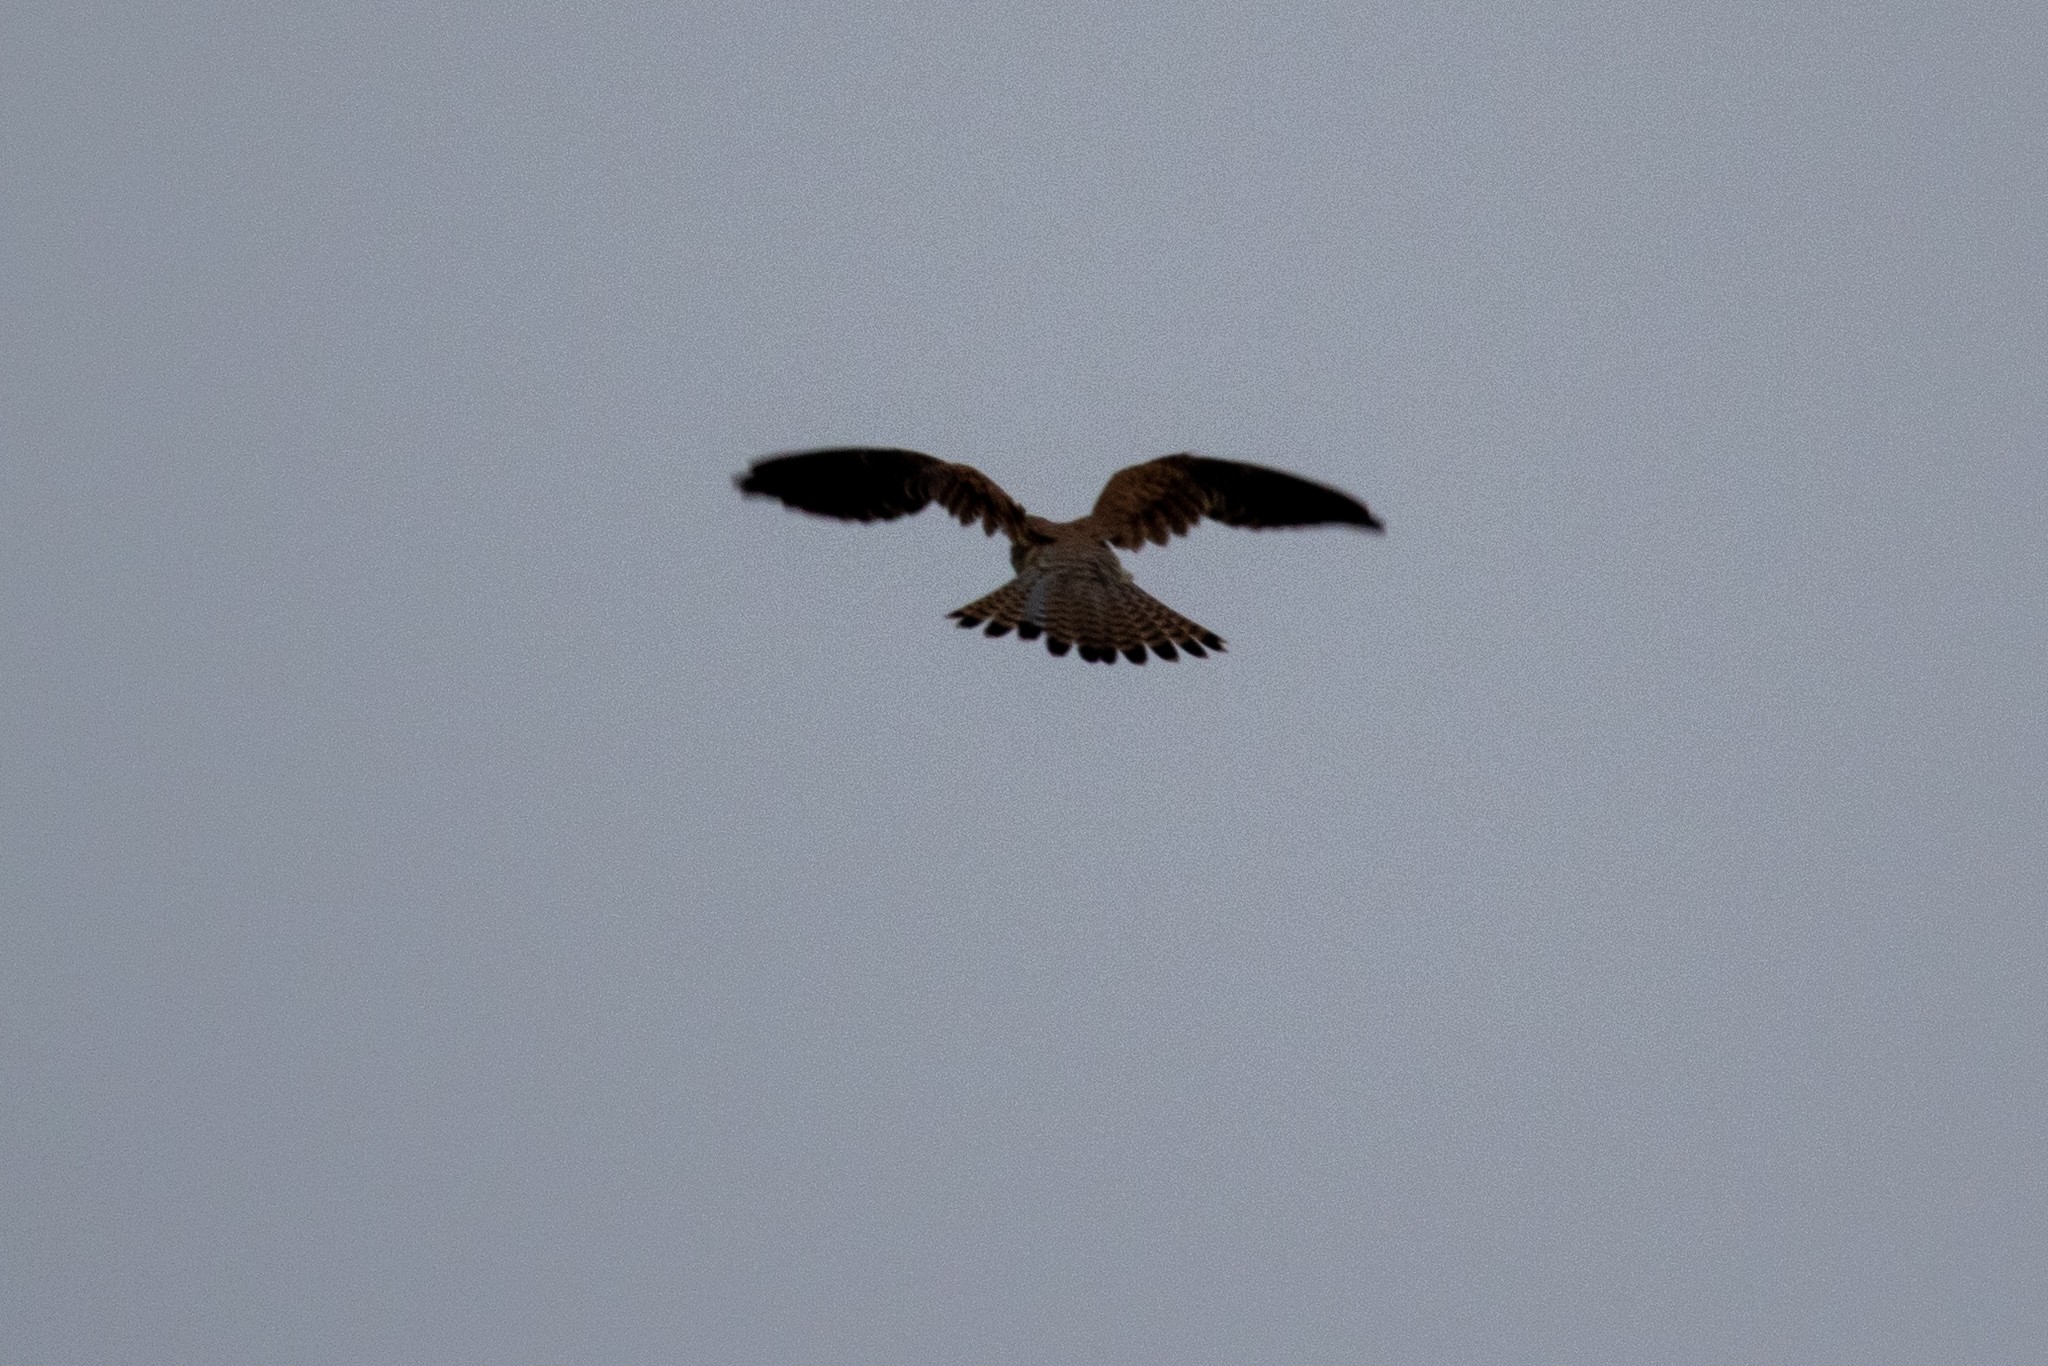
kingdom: Animalia
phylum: Chordata
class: Aves
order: Falconiformes
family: Falconidae
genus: Falco
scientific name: Falco tinnunculus
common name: Common kestrel
